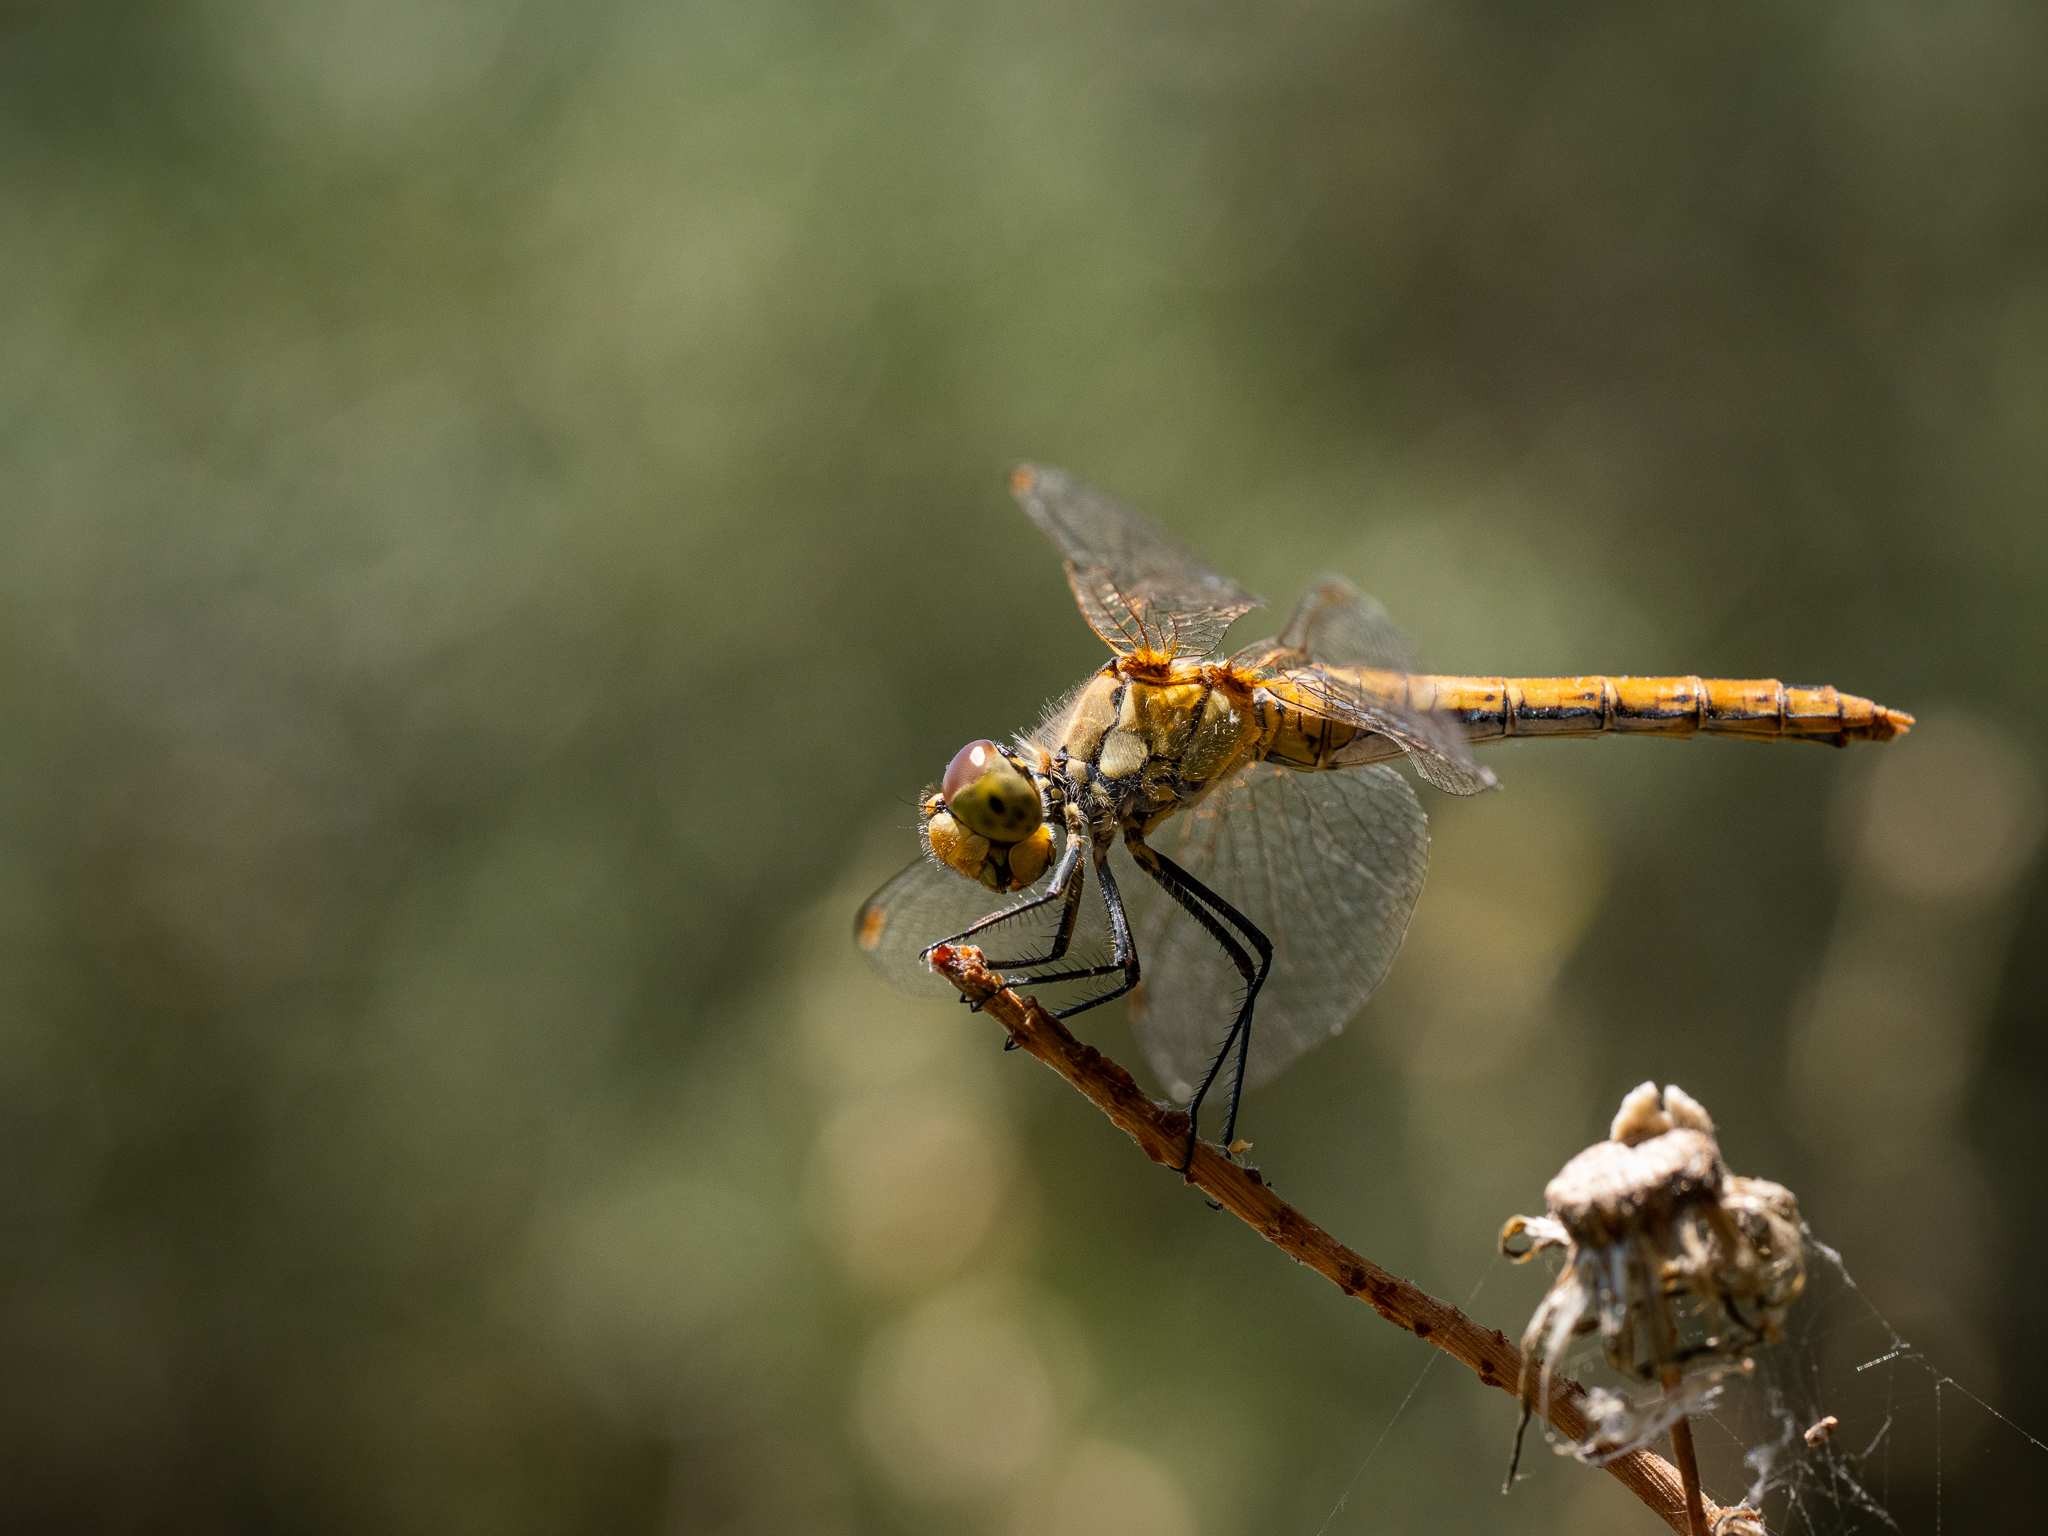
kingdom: Animalia
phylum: Arthropoda
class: Insecta
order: Odonata
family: Libellulidae
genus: Sympetrum
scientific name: Sympetrum sanguineum
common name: Ruddy darter
